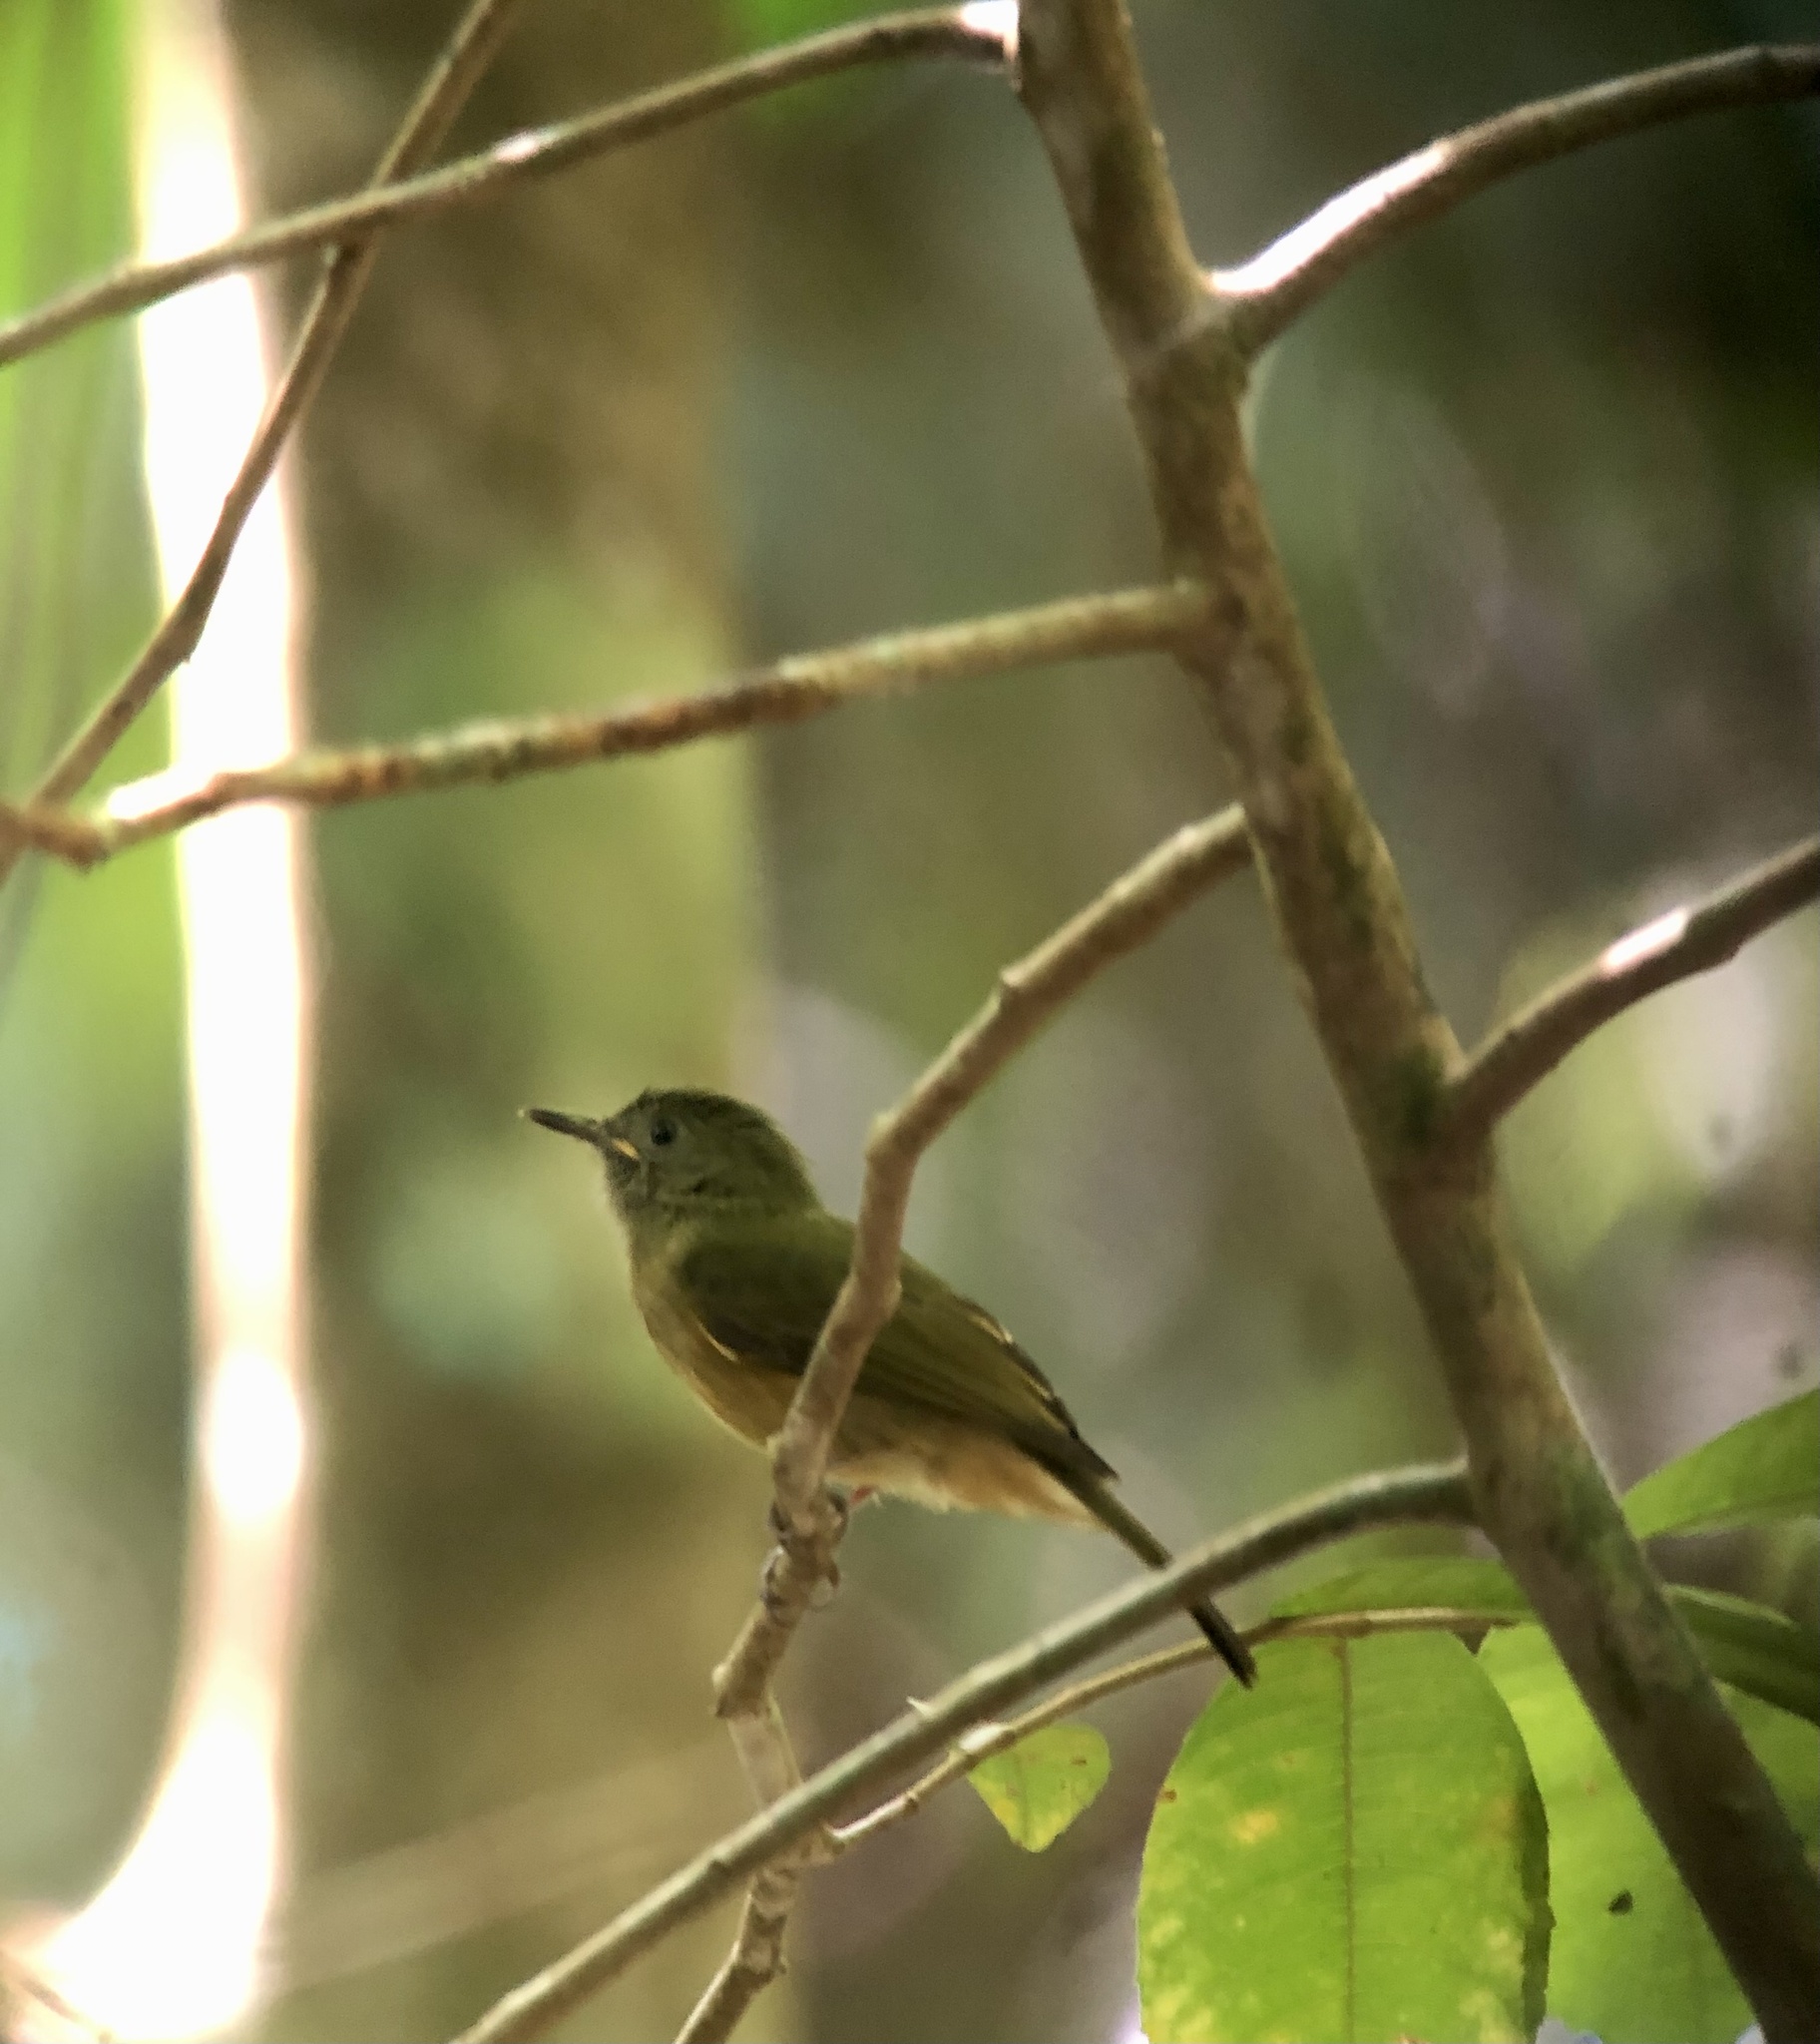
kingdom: Animalia
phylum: Chordata
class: Aves
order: Passeriformes
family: Tyrannidae
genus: Mionectes
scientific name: Mionectes oleagineus
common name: Ochre-bellied flycatcher
